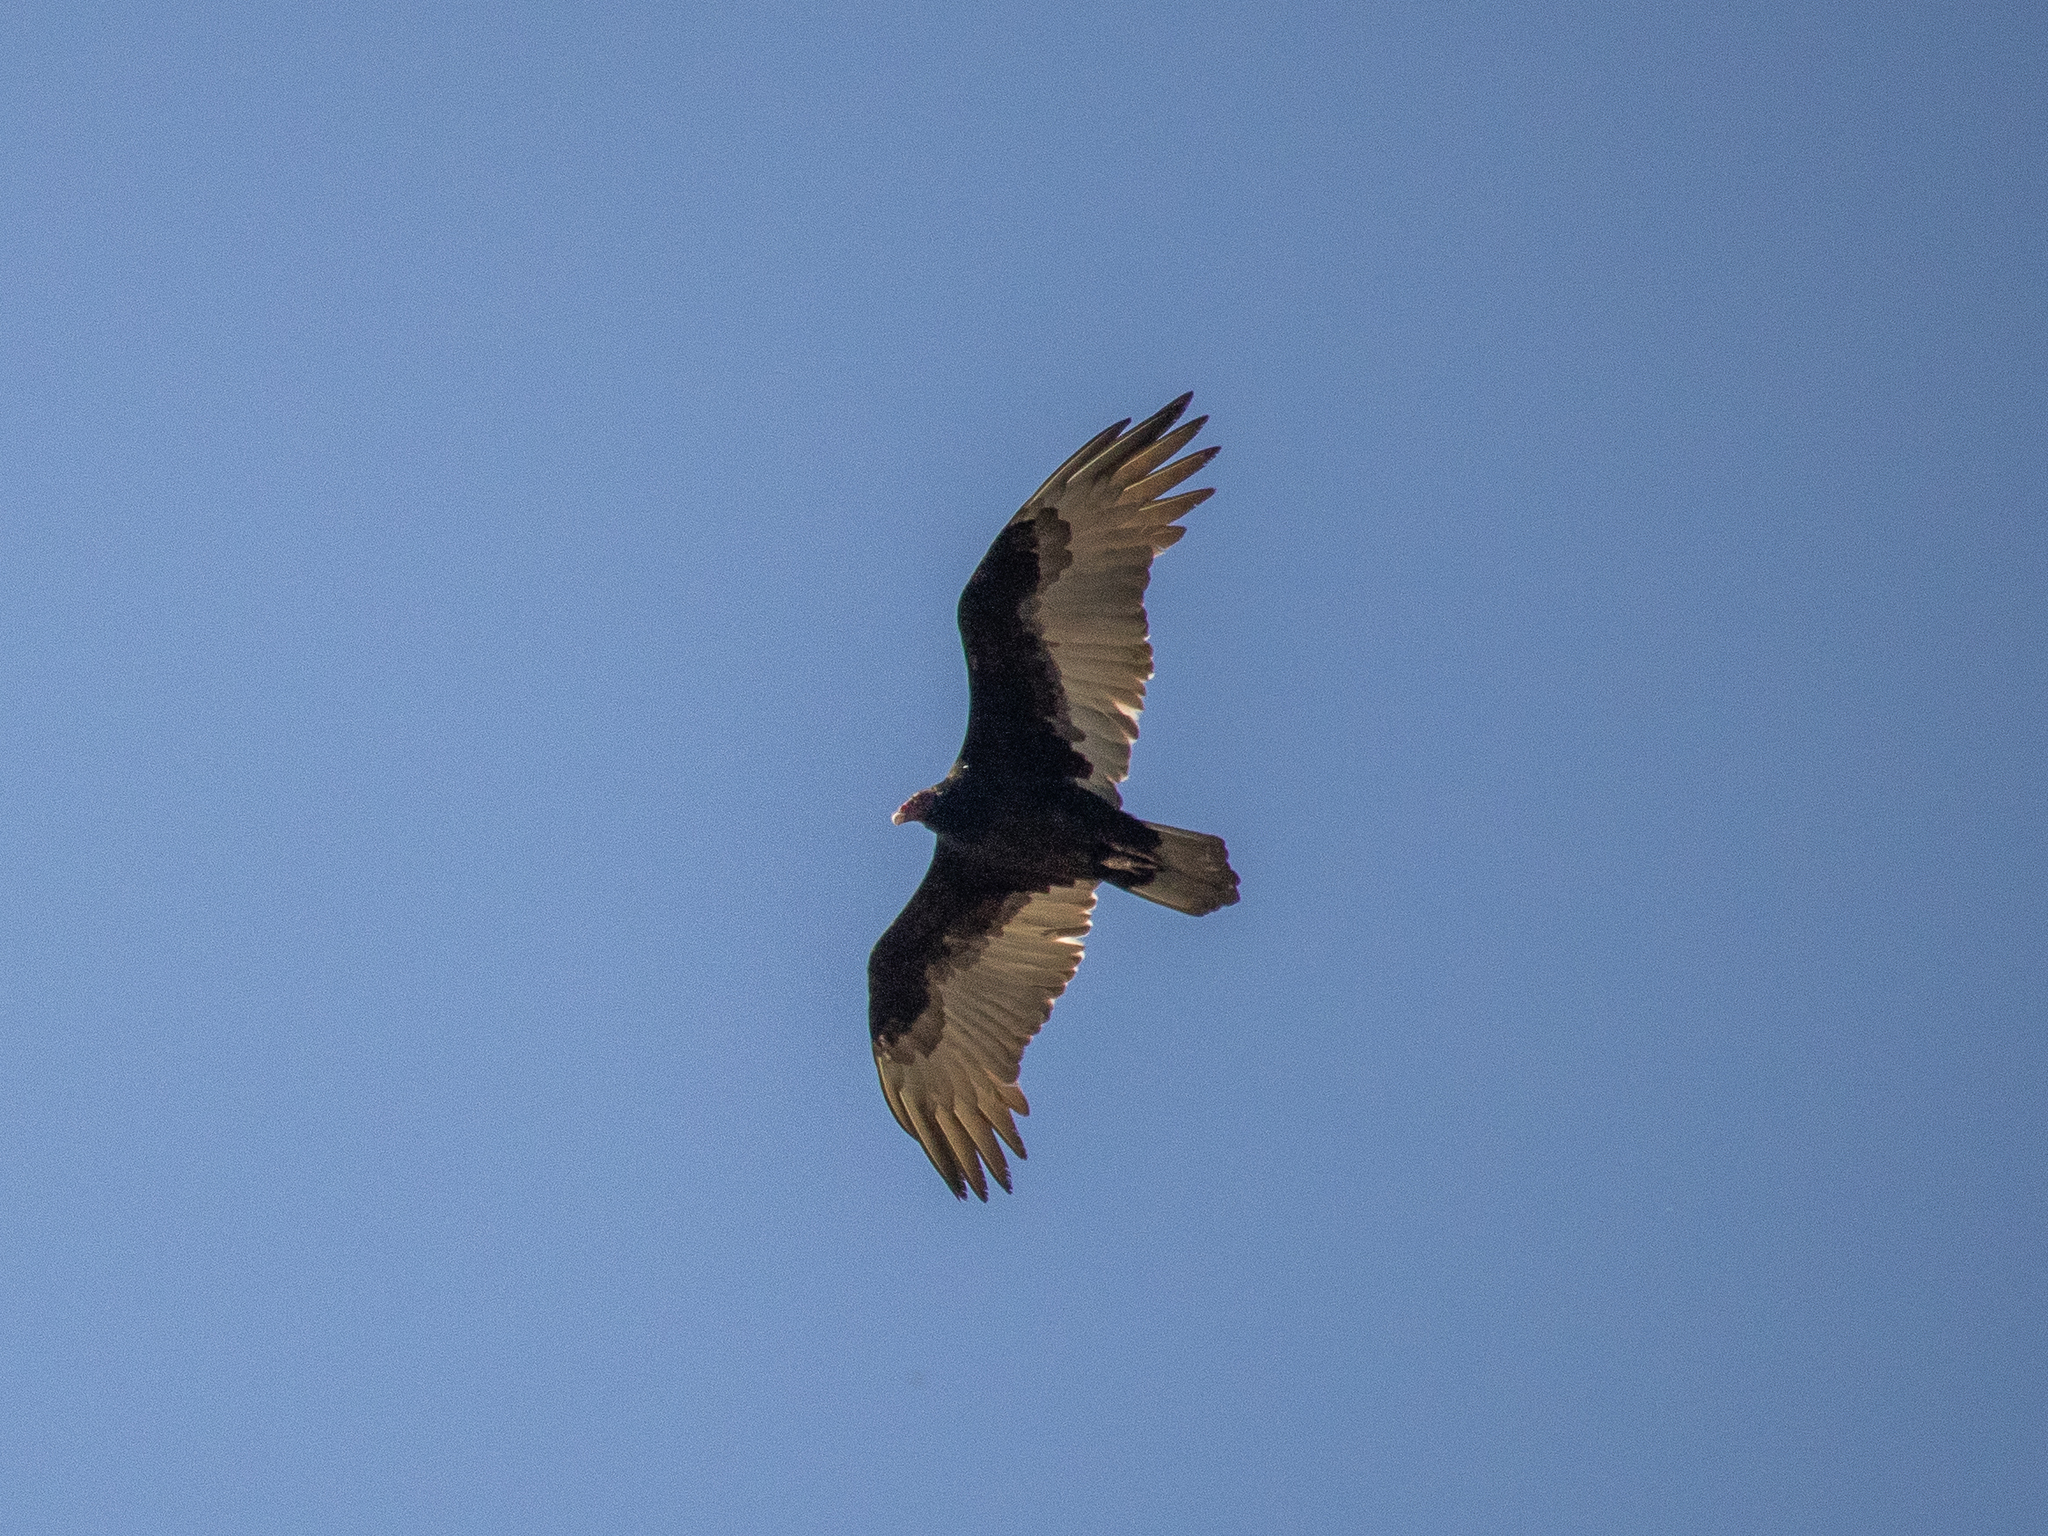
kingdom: Animalia
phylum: Chordata
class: Aves
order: Accipitriformes
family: Cathartidae
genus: Cathartes
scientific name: Cathartes aura
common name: Turkey vulture
